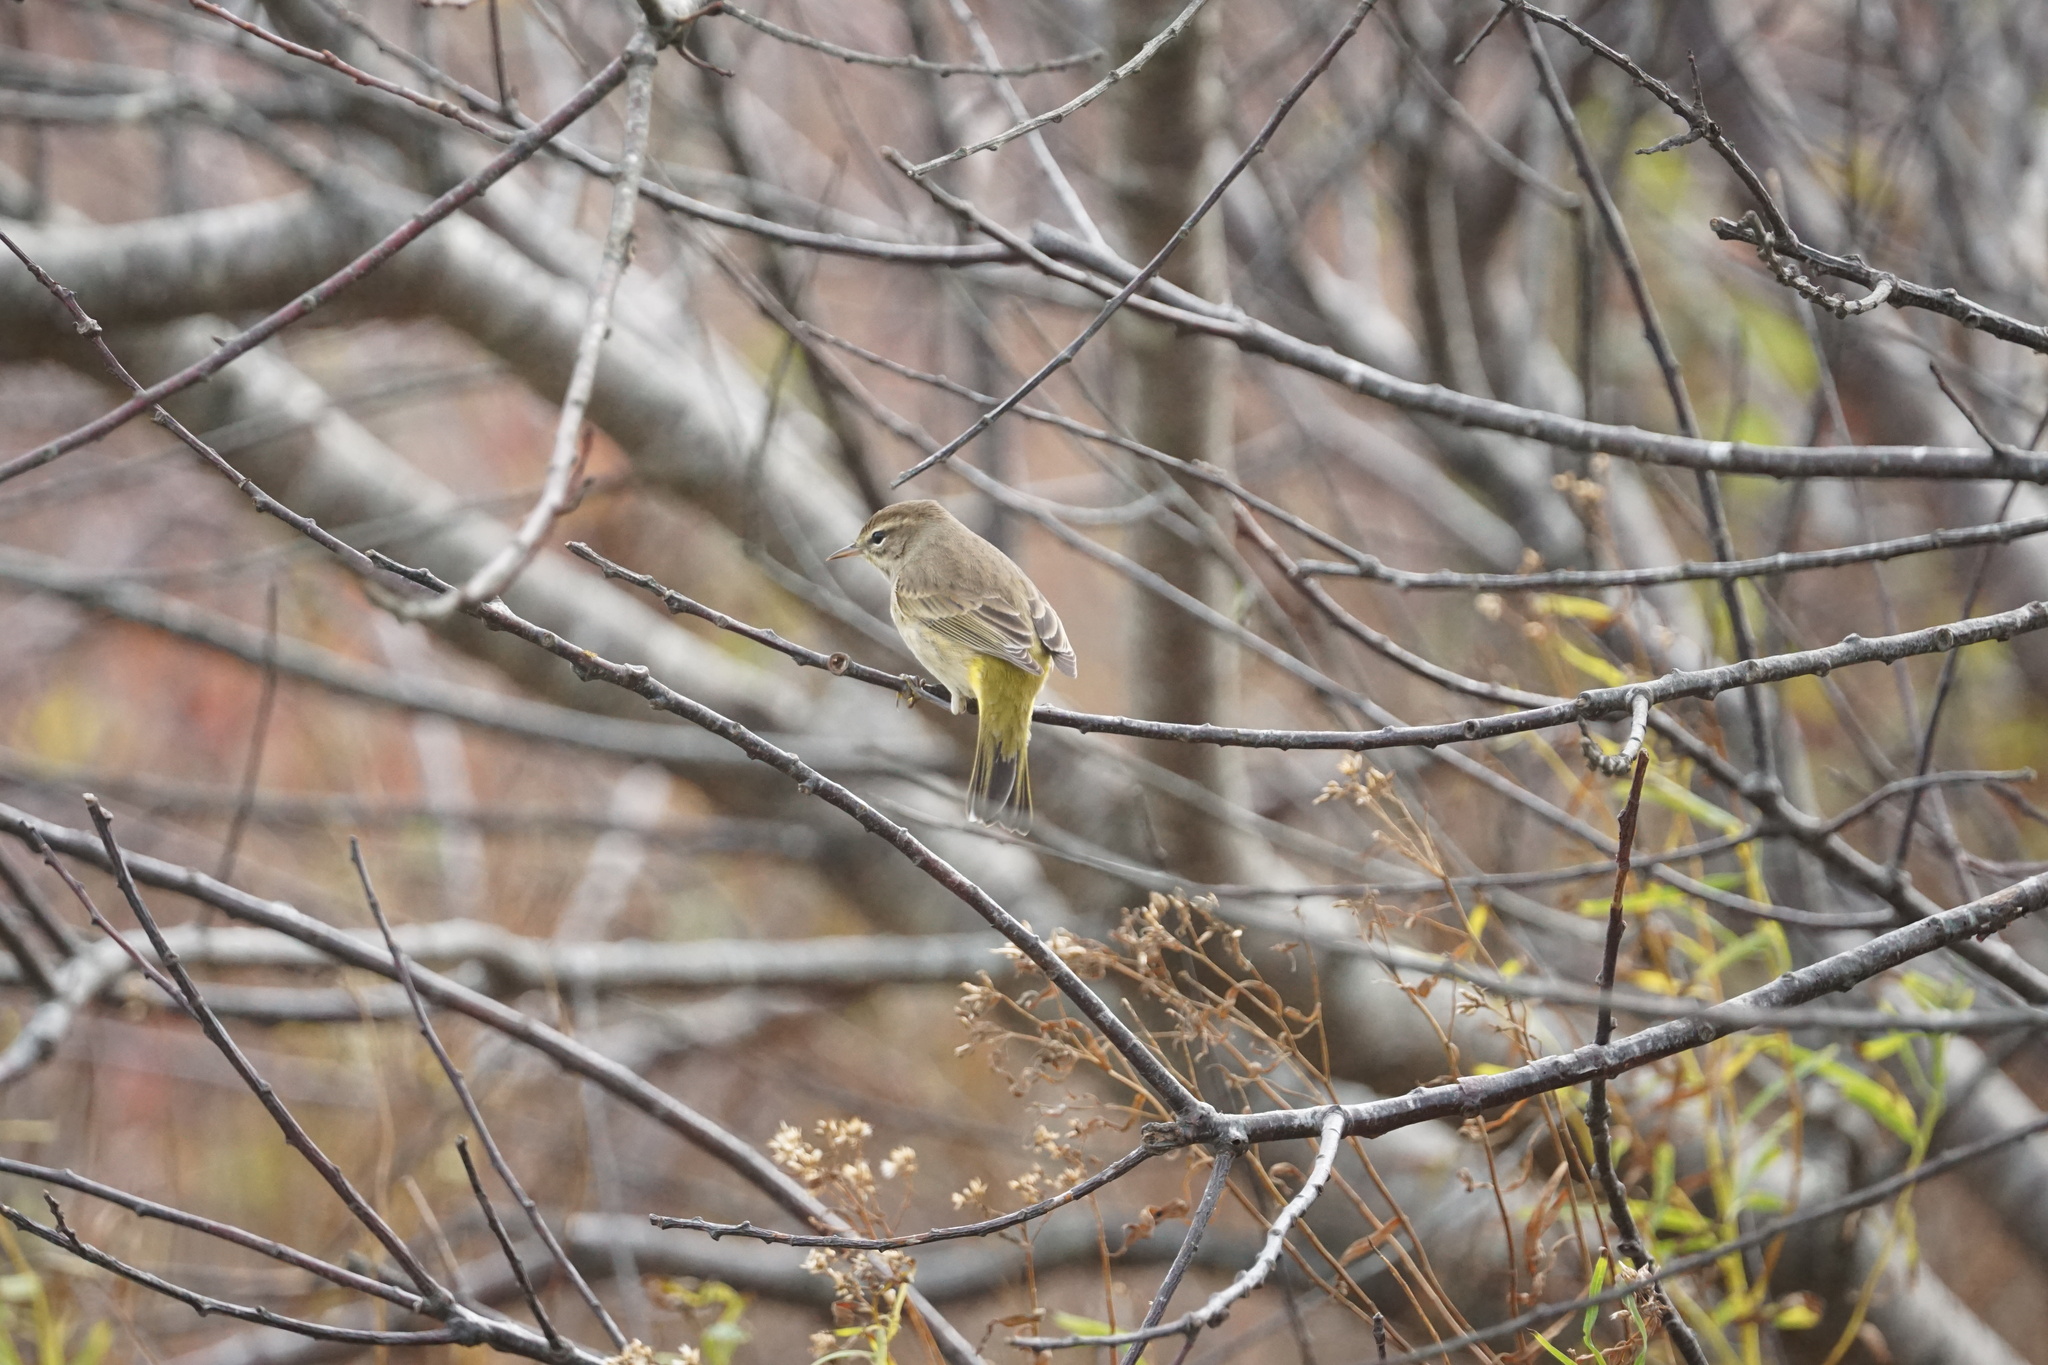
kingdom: Animalia
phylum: Chordata
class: Aves
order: Passeriformes
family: Parulidae
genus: Setophaga
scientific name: Setophaga palmarum
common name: Palm warbler
